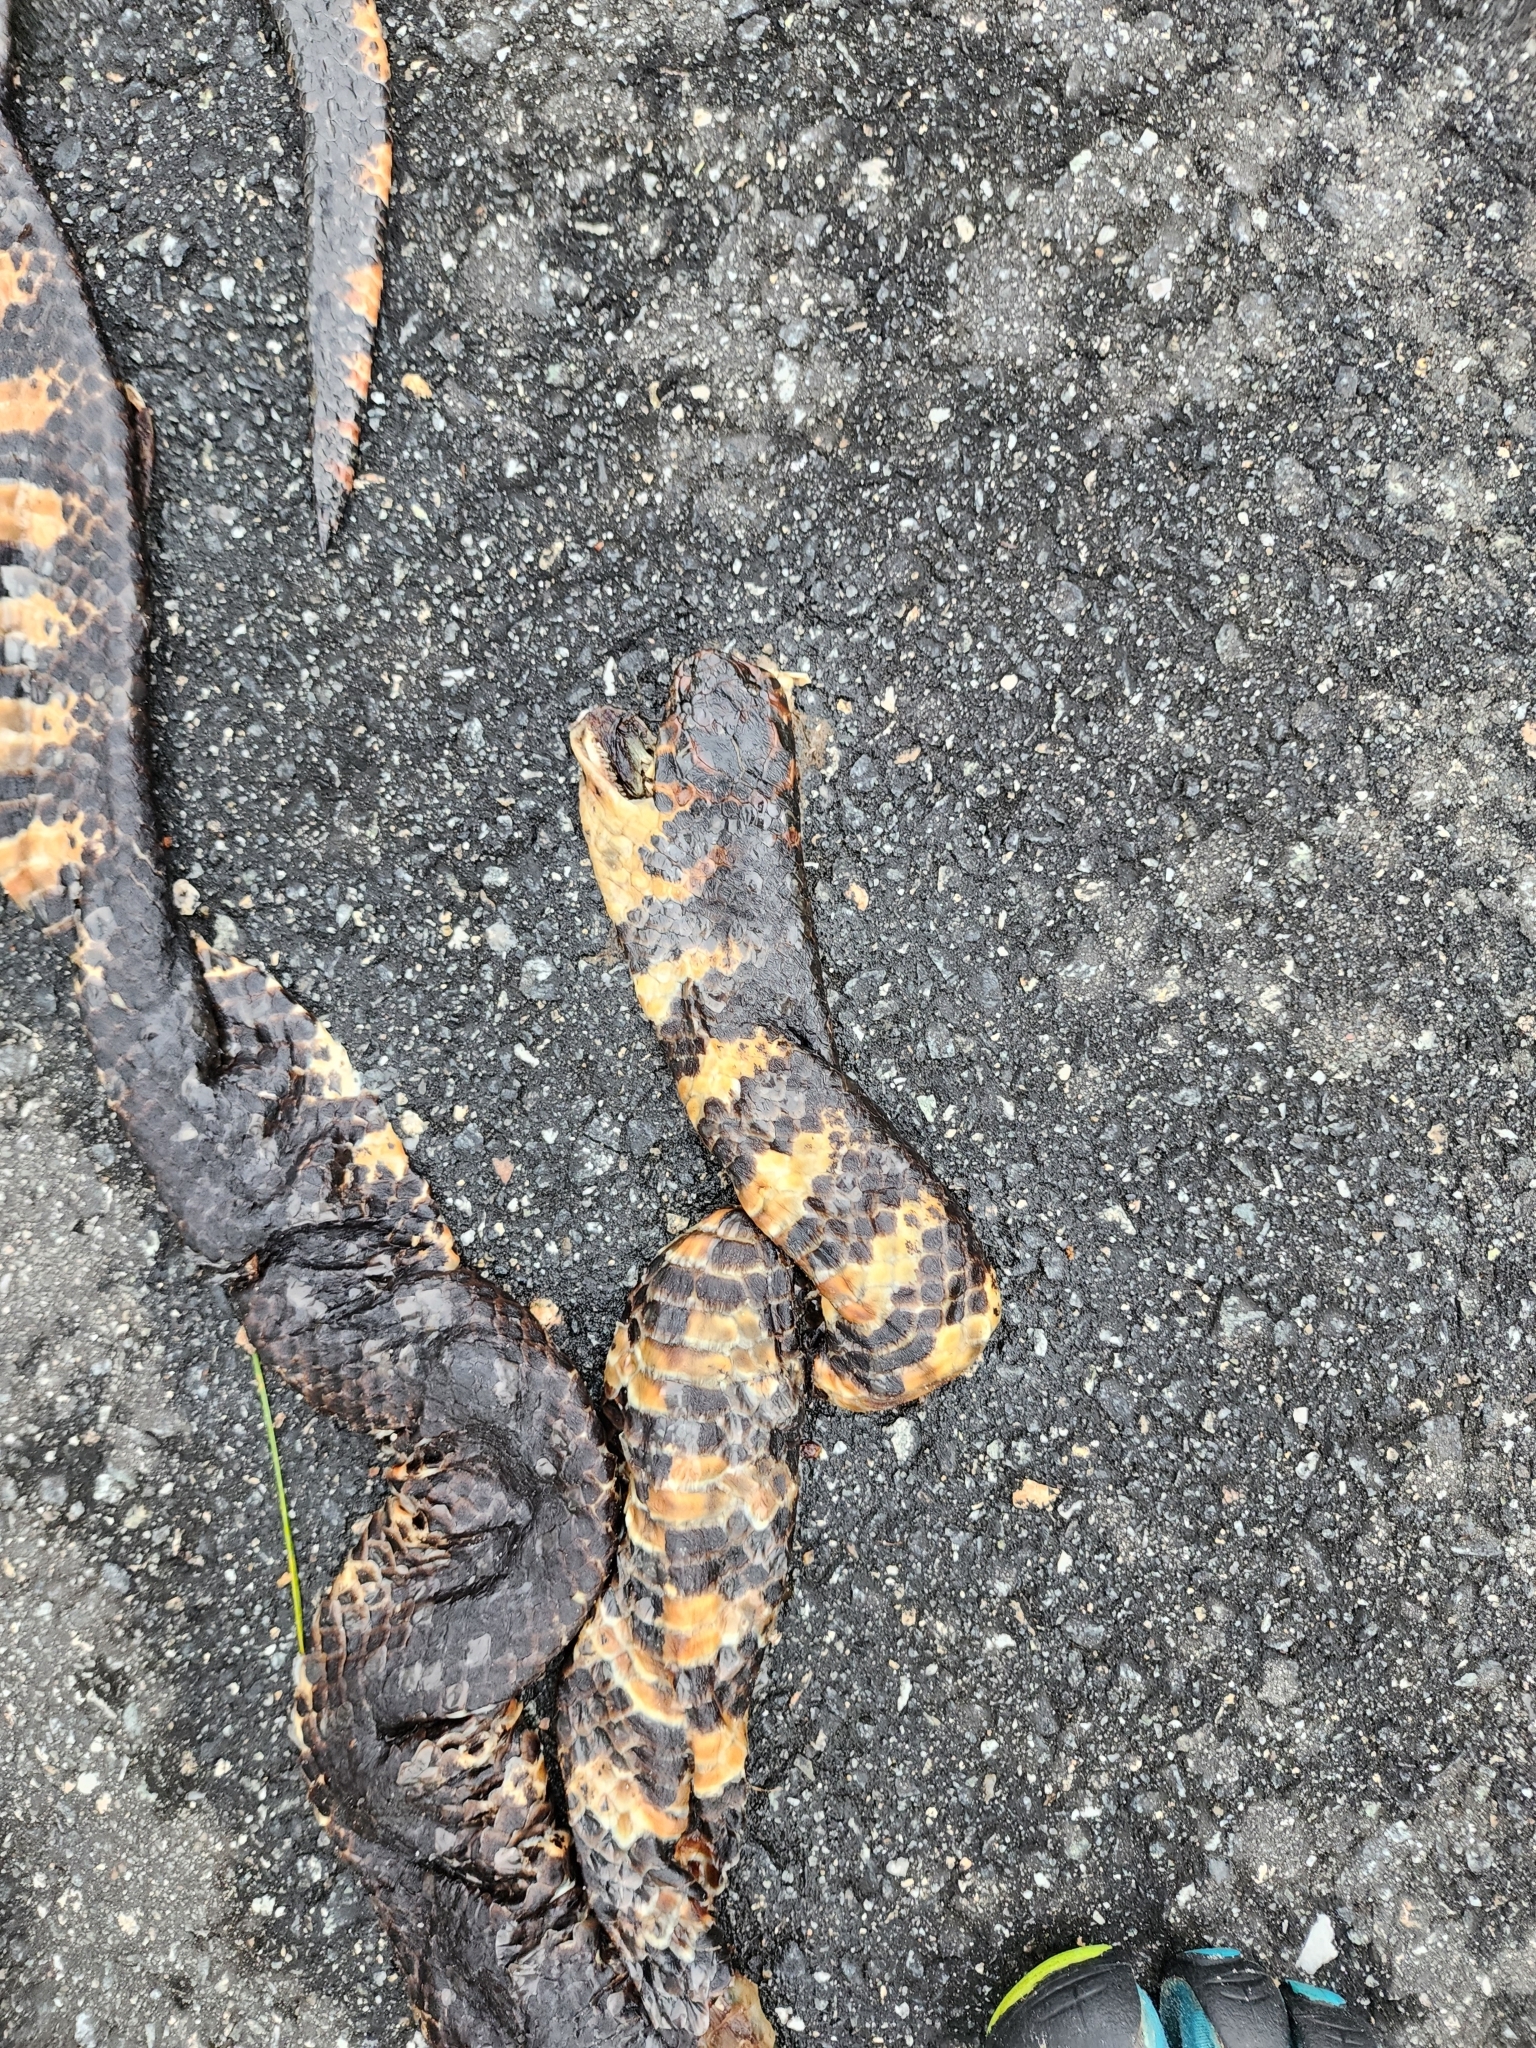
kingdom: Animalia
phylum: Chordata
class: Squamata
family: Colubridae
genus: Farancia
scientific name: Farancia abacura
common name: Mud snake
